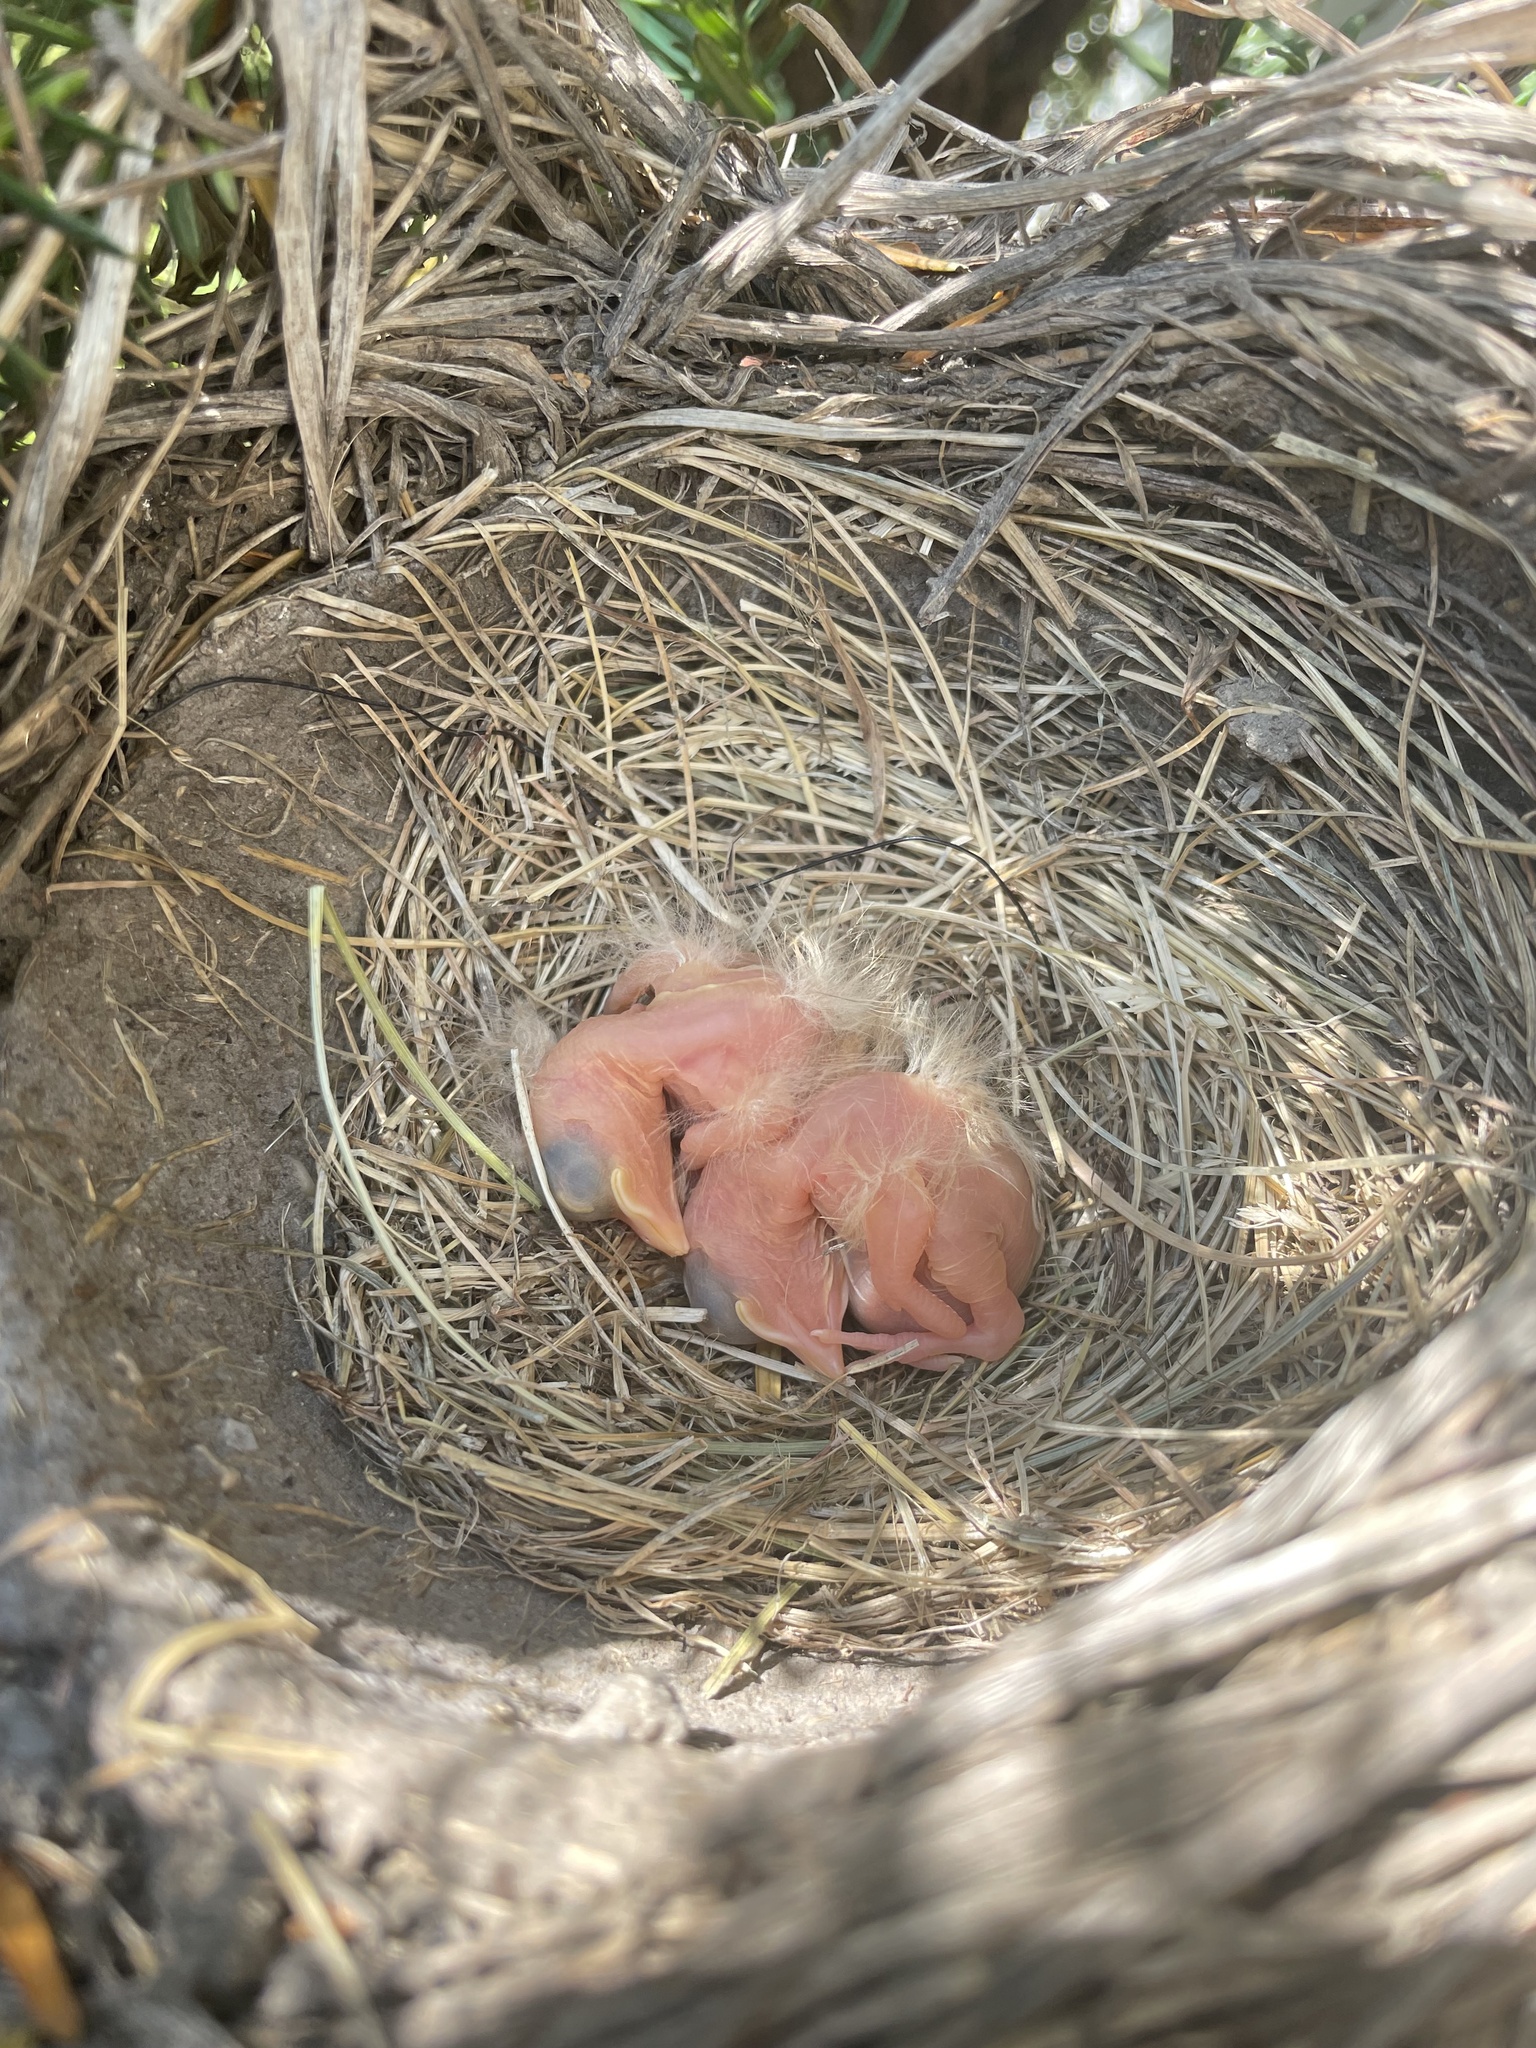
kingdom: Animalia
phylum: Chordata
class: Aves
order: Passeriformes
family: Turdidae
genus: Turdus
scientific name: Turdus migratorius
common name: American robin
